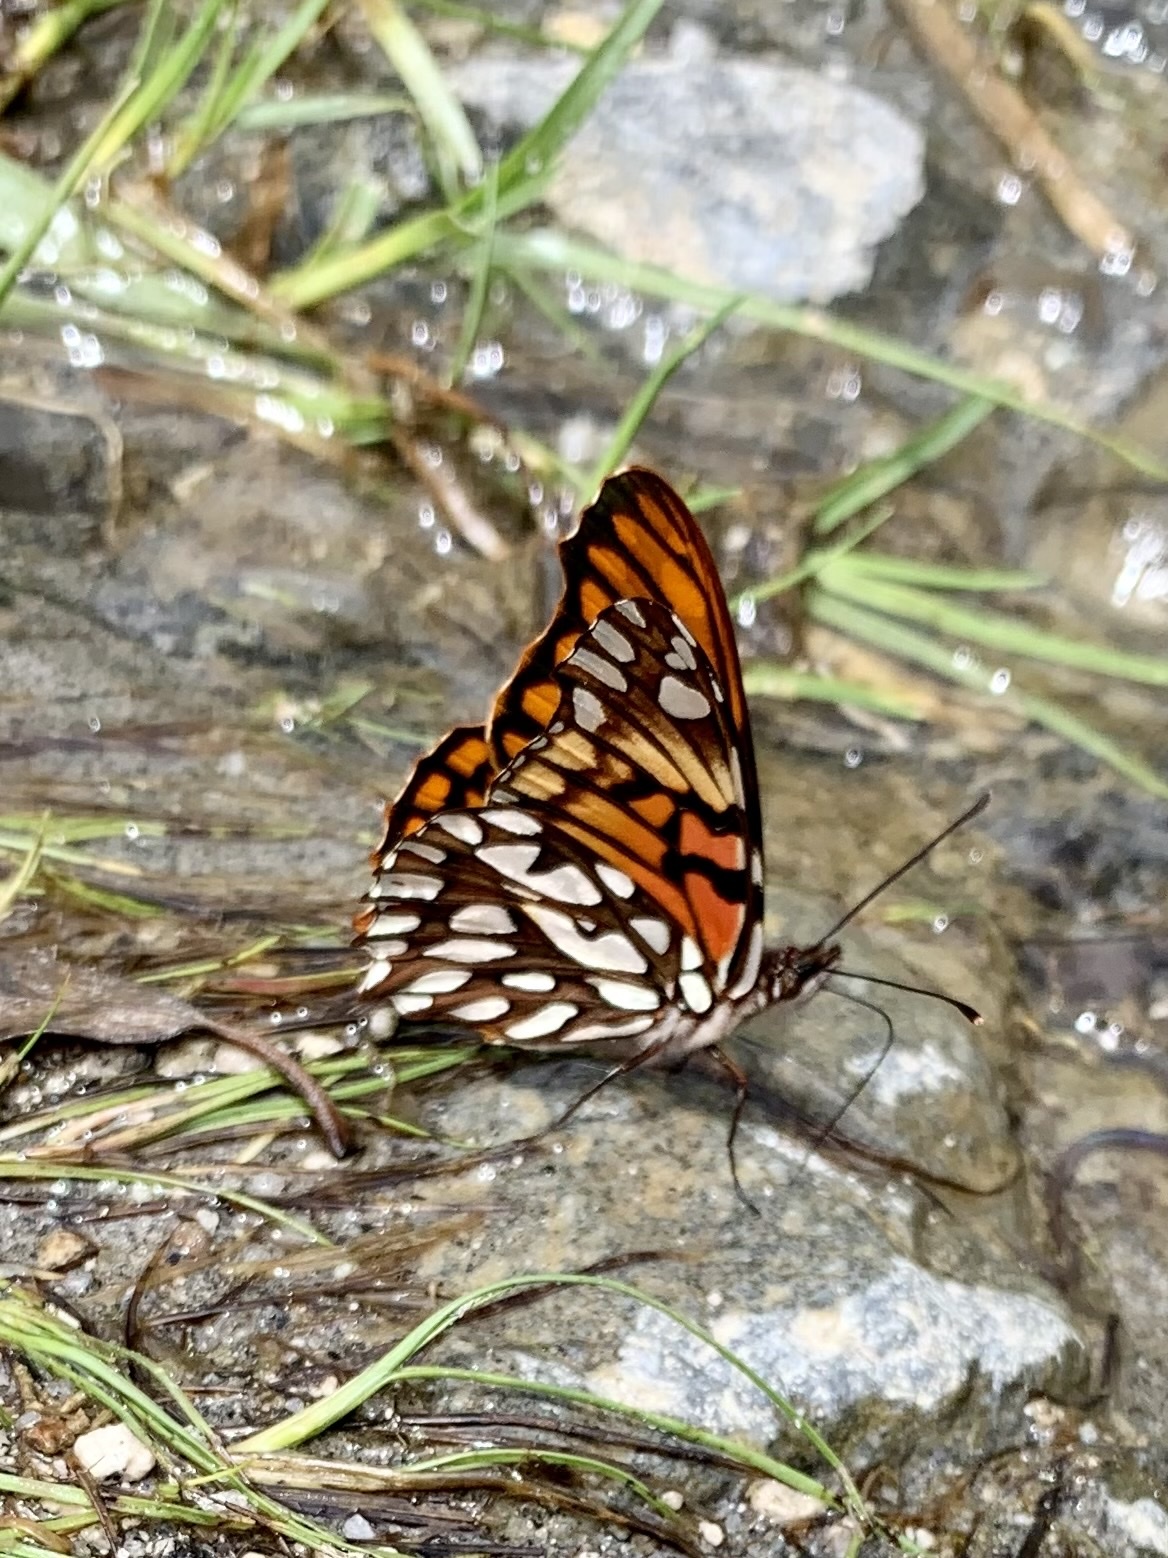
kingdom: Animalia
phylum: Arthropoda
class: Insecta
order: Lepidoptera
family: Nymphalidae
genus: Dione
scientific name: Dione glycera
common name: Andean silverspot
